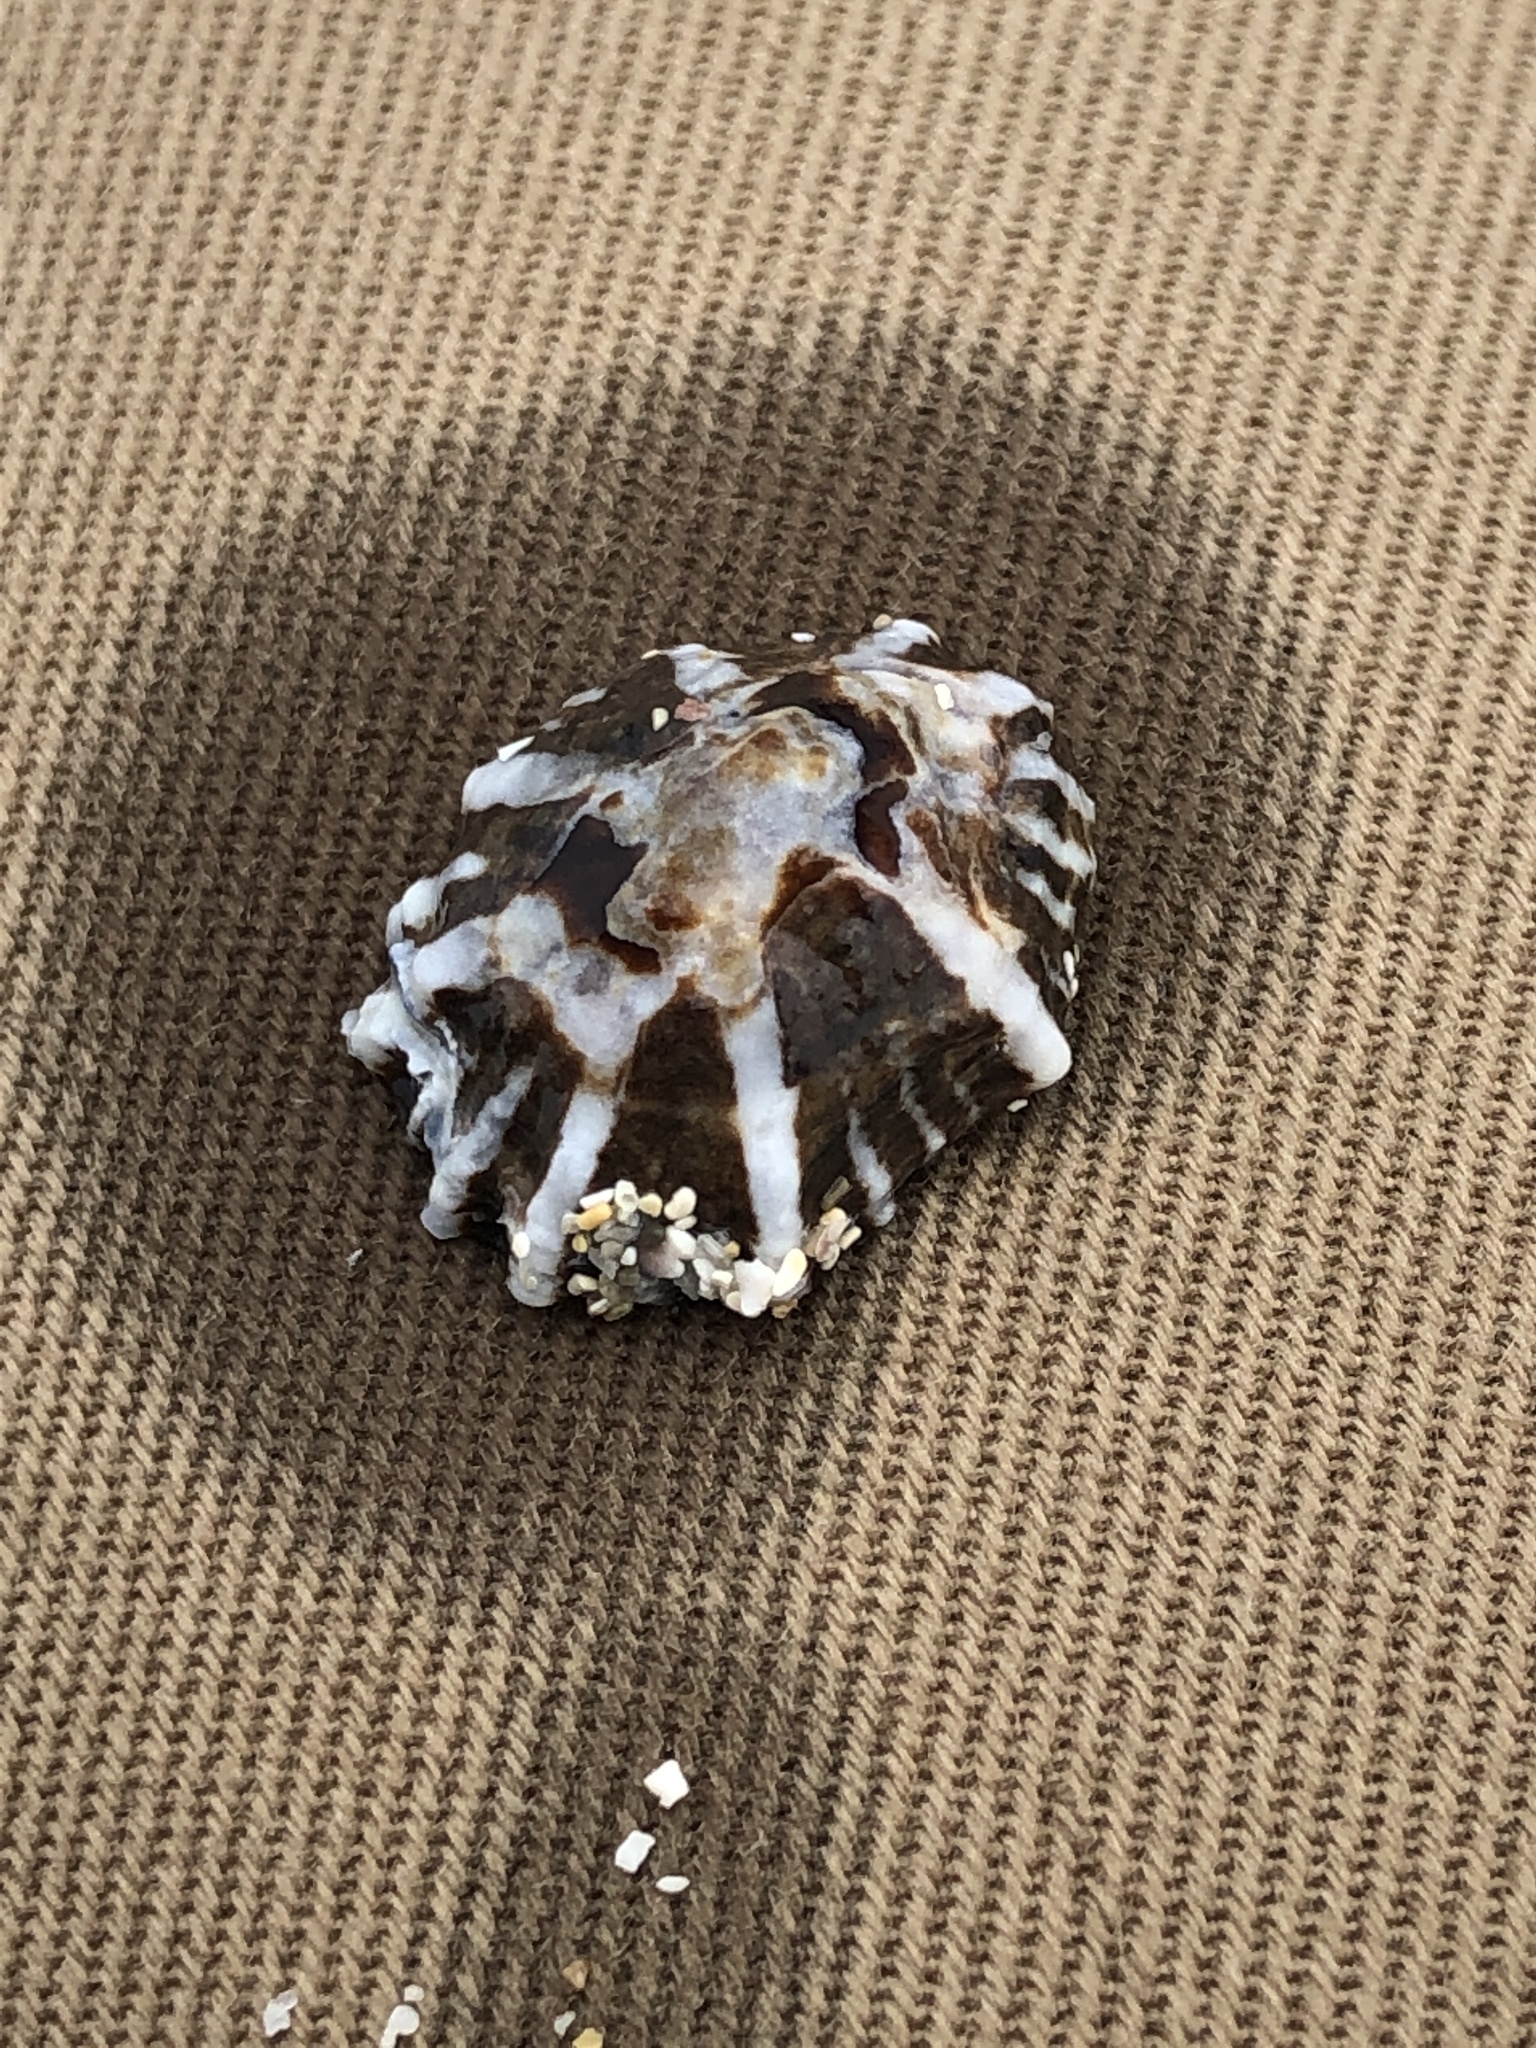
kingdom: Animalia
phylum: Mollusca
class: Gastropoda
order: Siphonariida
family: Siphonariidae
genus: Siphonaria
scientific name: Siphonaria sirius
